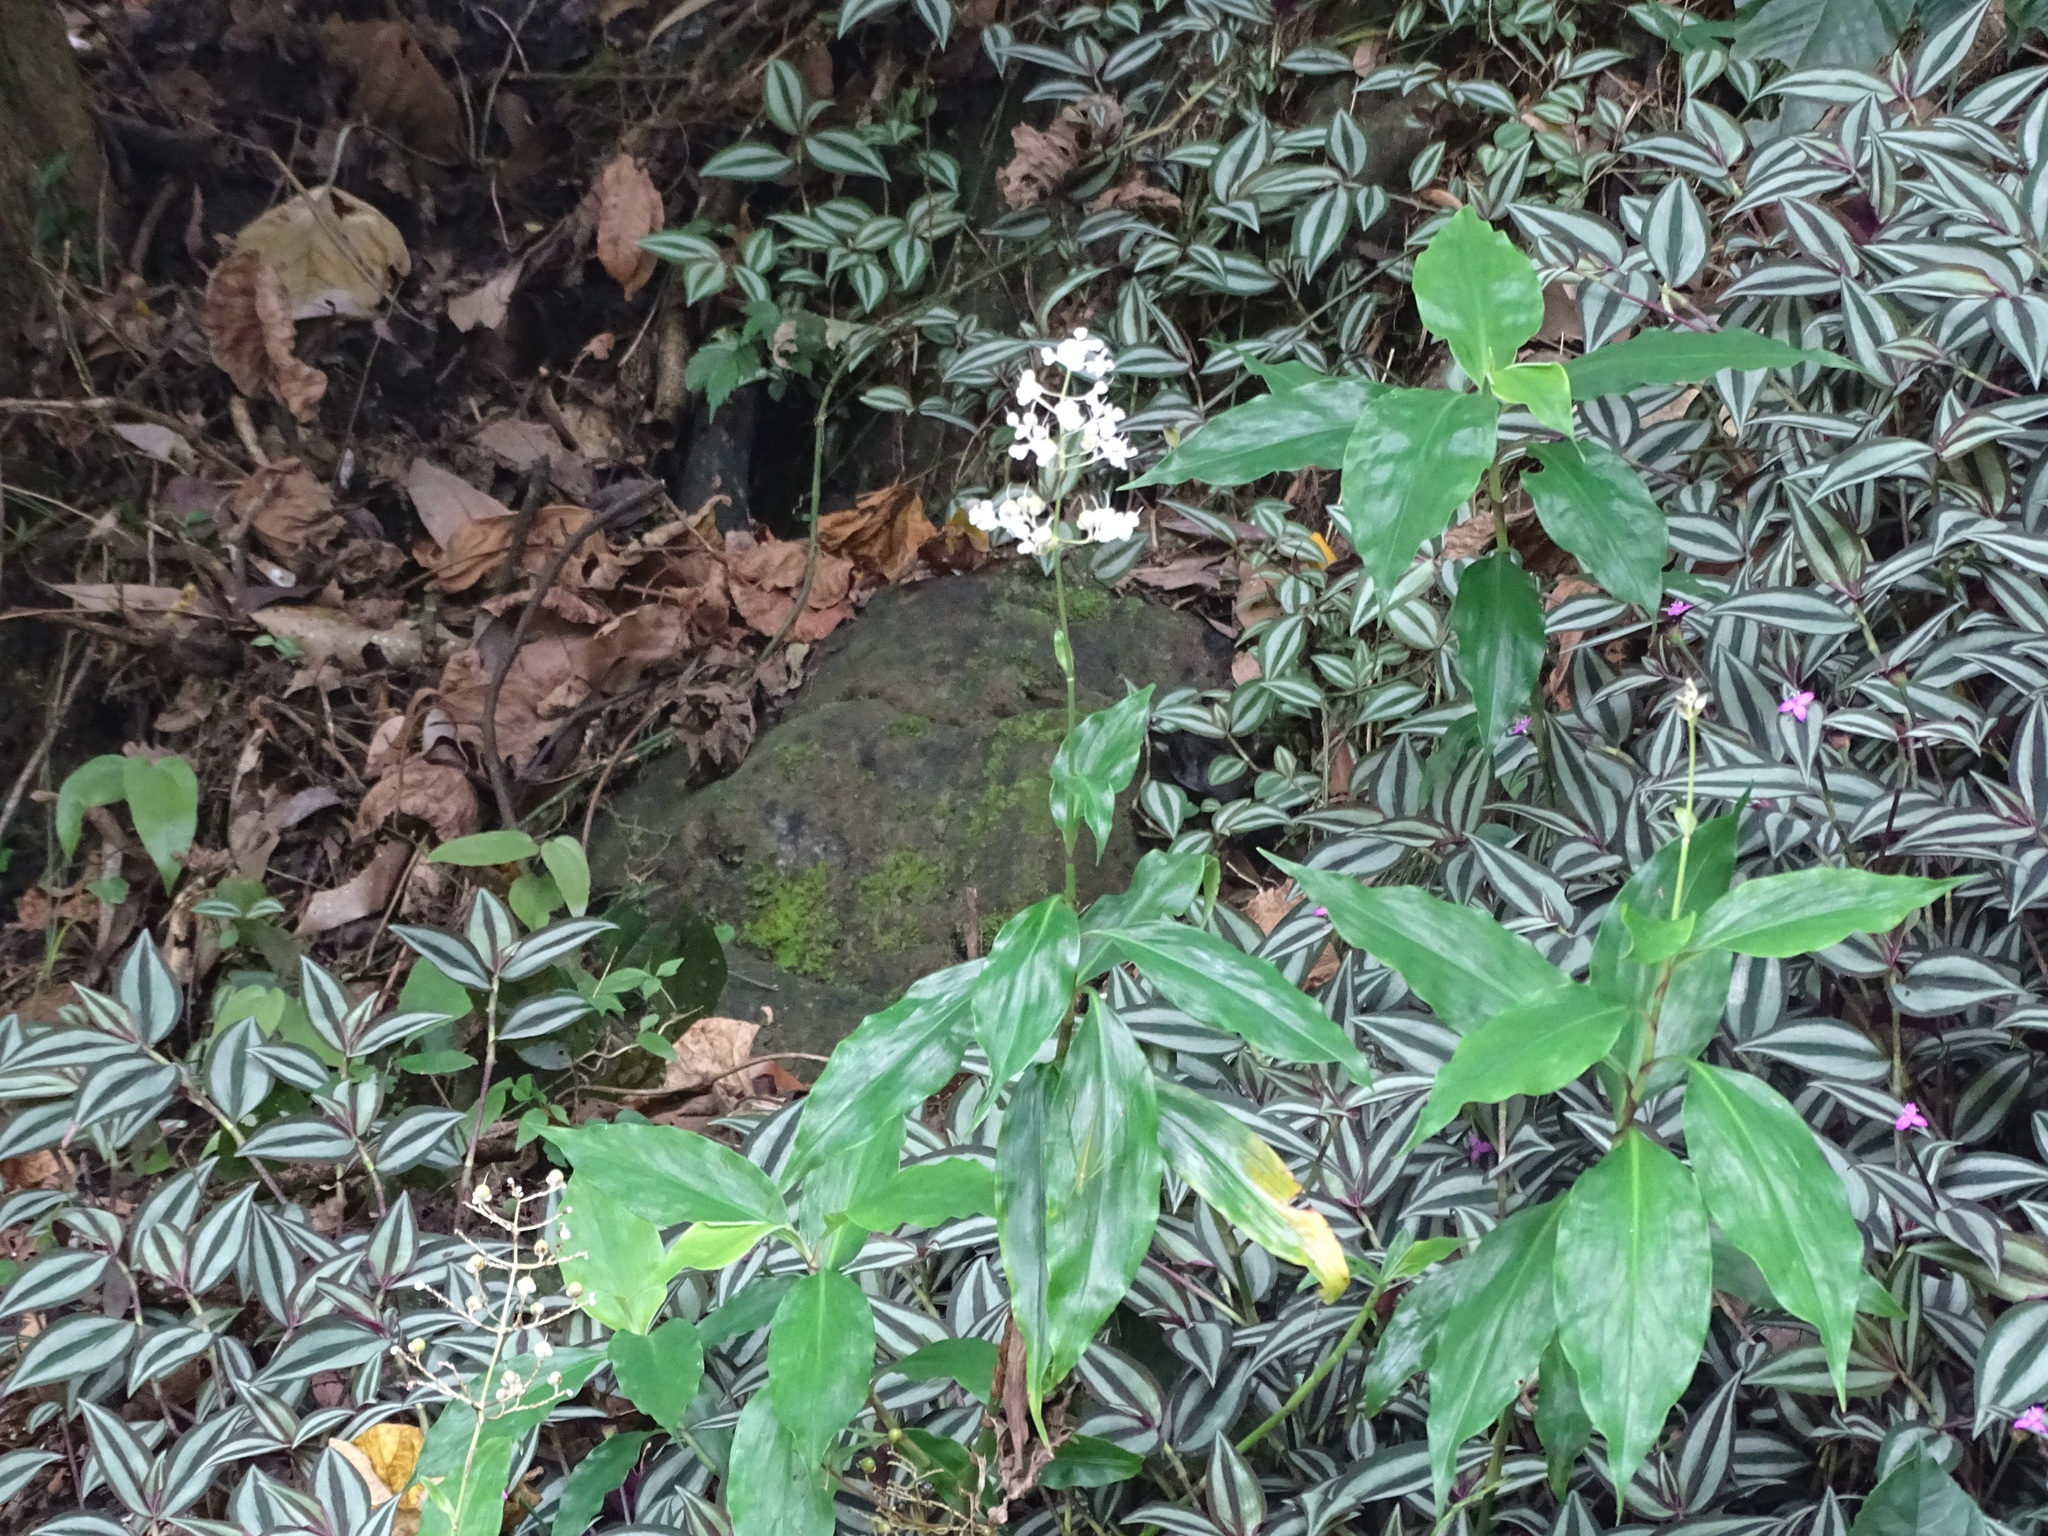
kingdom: Plantae
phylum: Tracheophyta
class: Liliopsida
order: Commelinales
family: Commelinaceae
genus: Pollia
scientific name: Pollia japonica
